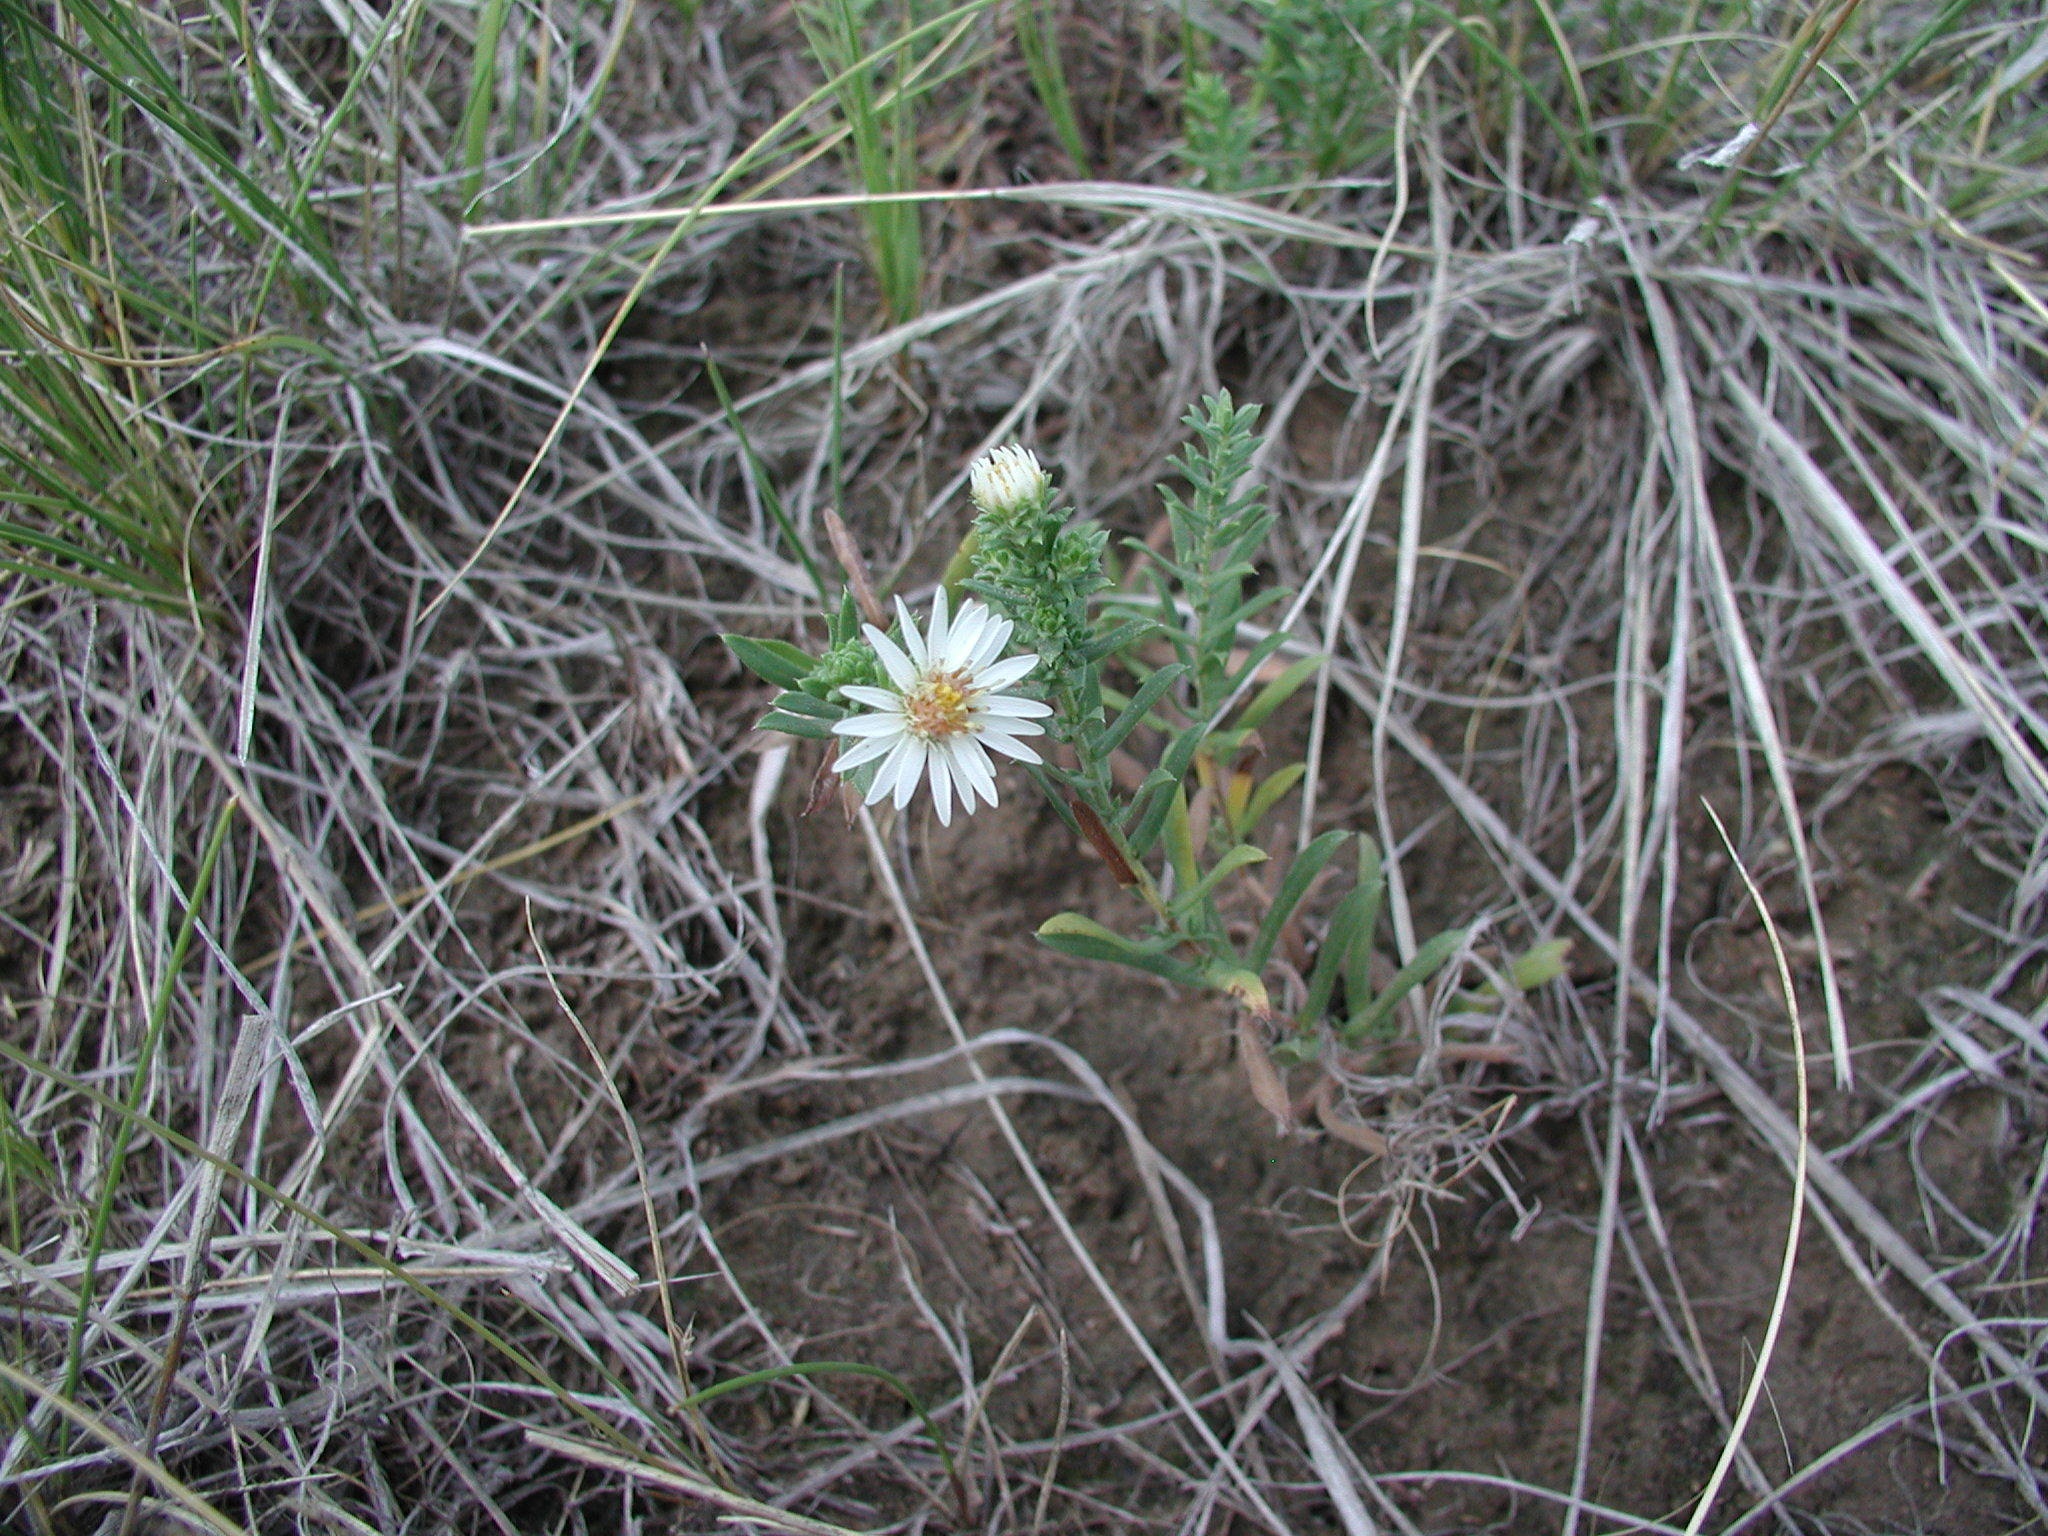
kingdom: Plantae
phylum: Tracheophyta
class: Magnoliopsida
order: Asterales
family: Asteraceae
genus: Symphyotrichum
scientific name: Symphyotrichum falcatum
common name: Creeping white prairie aster
